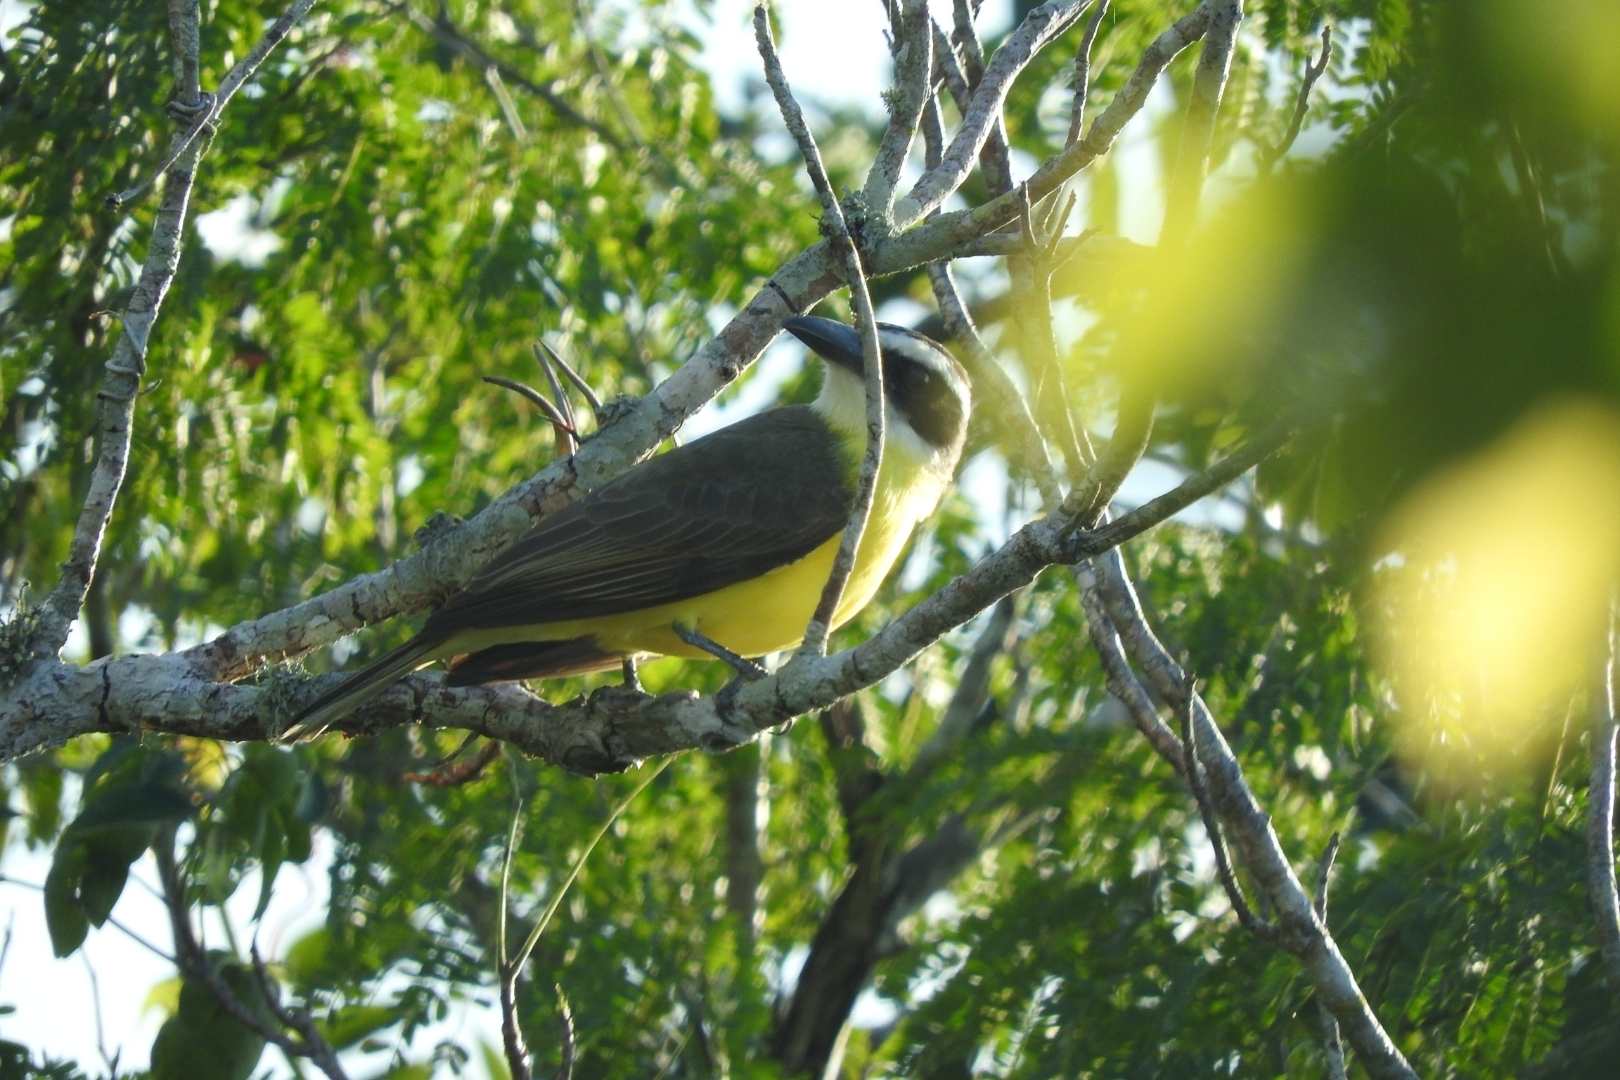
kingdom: Animalia
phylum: Chordata
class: Aves
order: Passeriformes
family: Tyrannidae
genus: Megarynchus
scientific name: Megarynchus pitangua
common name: Boat-billed flycatcher
